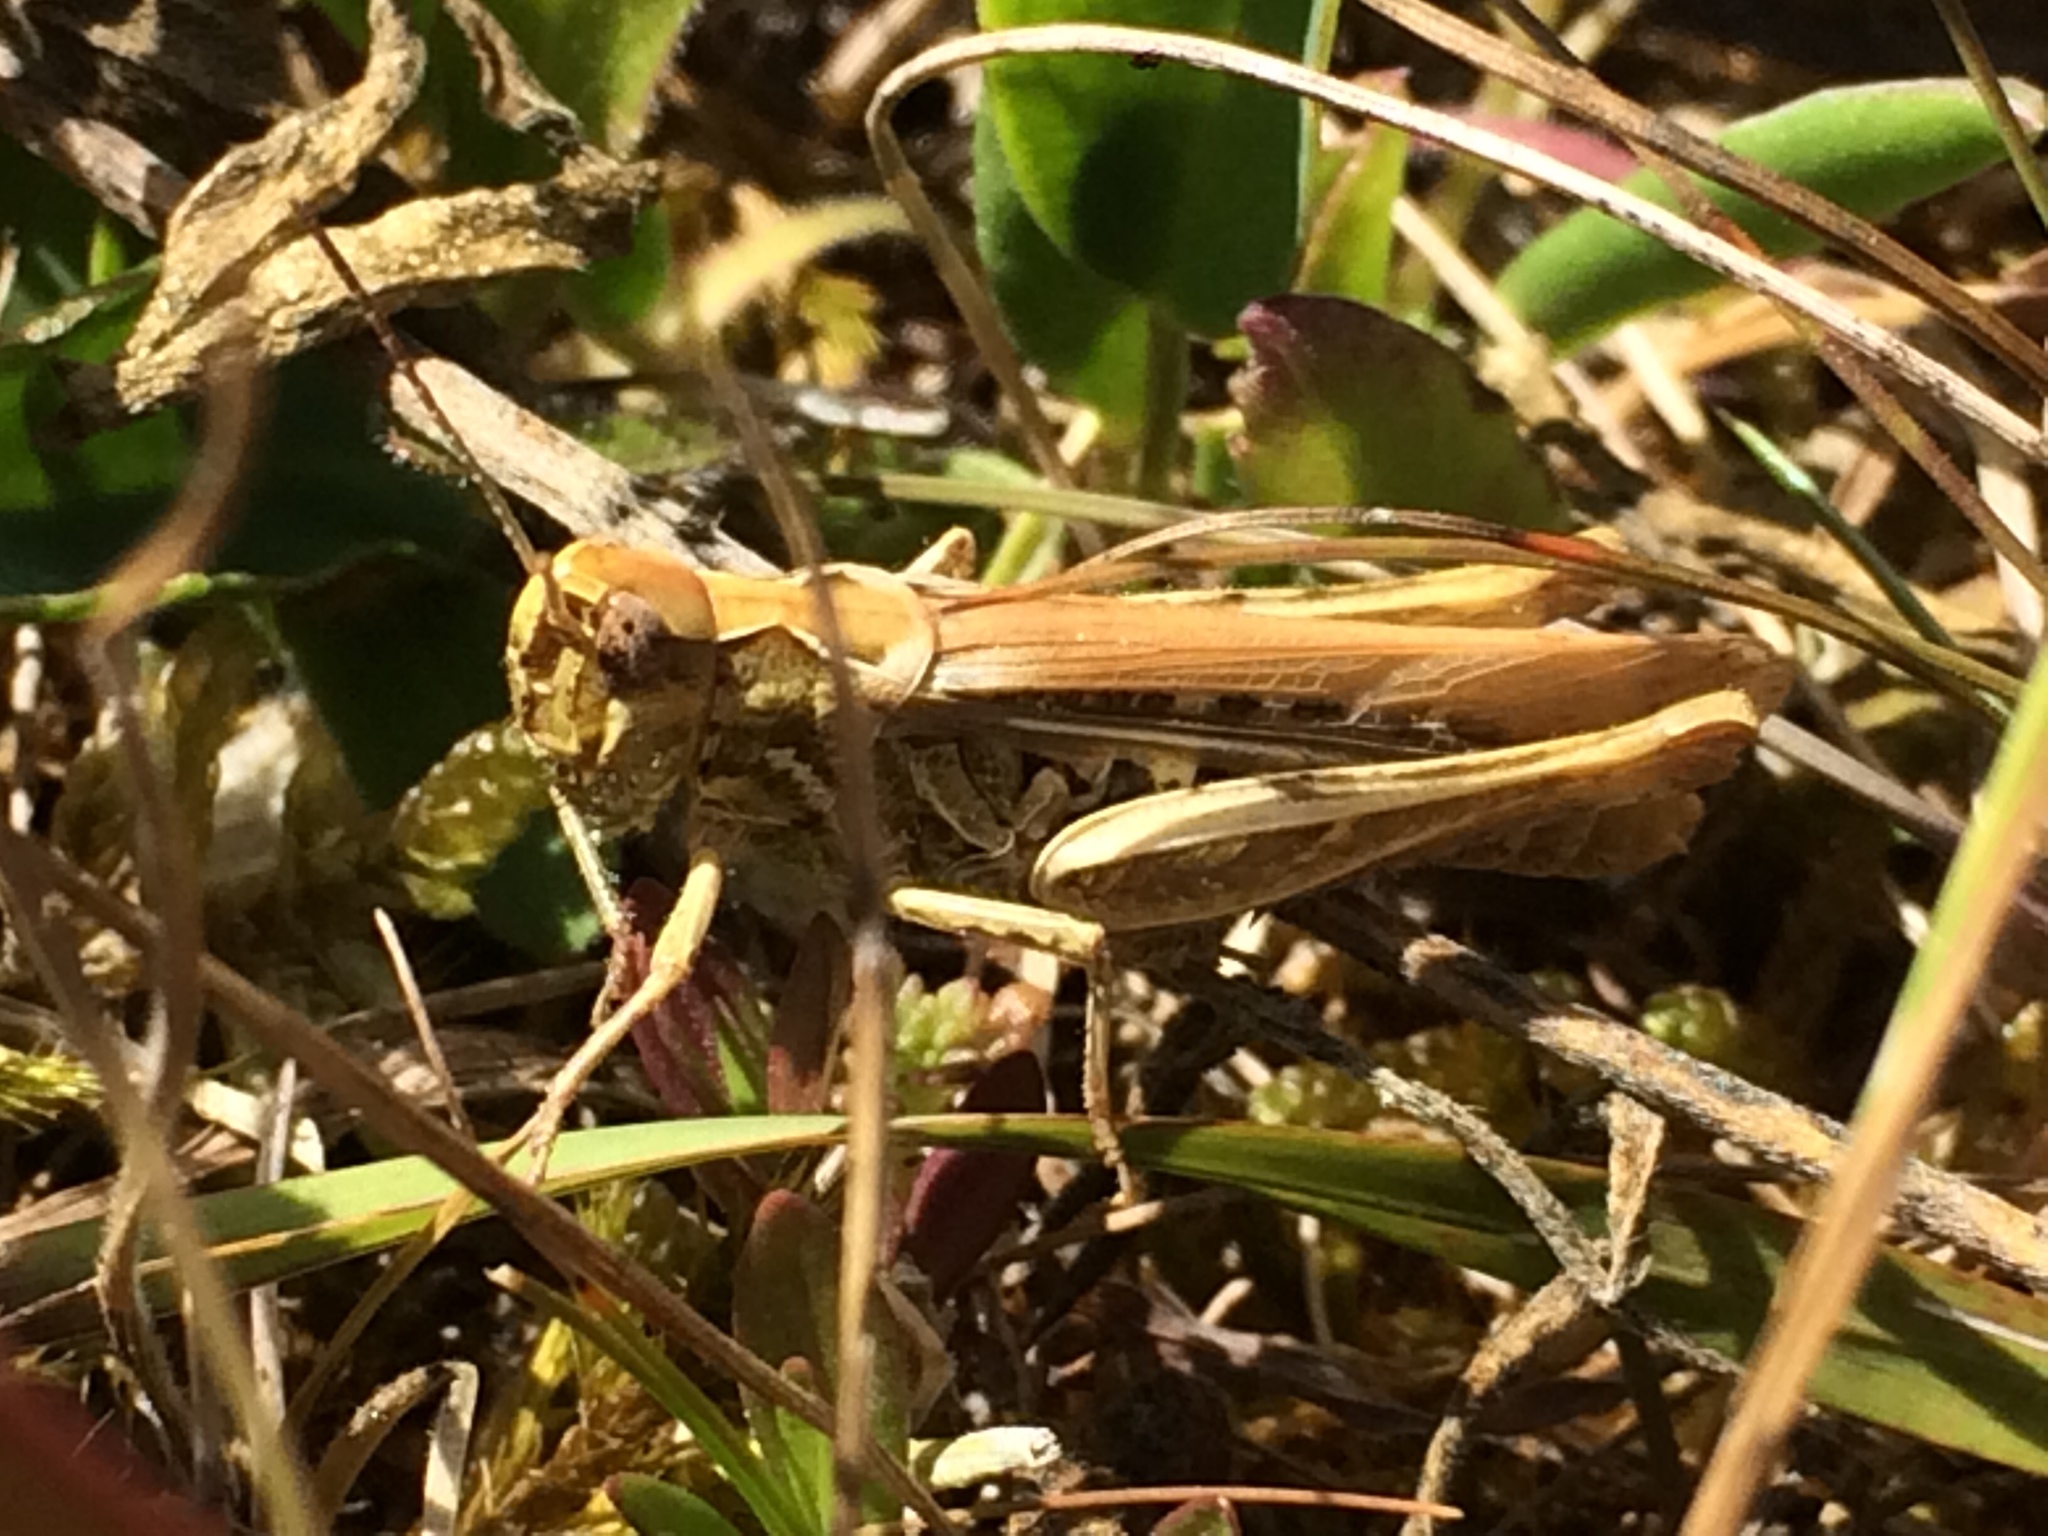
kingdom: Animalia
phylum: Arthropoda
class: Insecta
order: Orthoptera
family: Acrididae
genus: Chorthippus
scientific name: Chorthippus brunneus
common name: Field grasshopper
